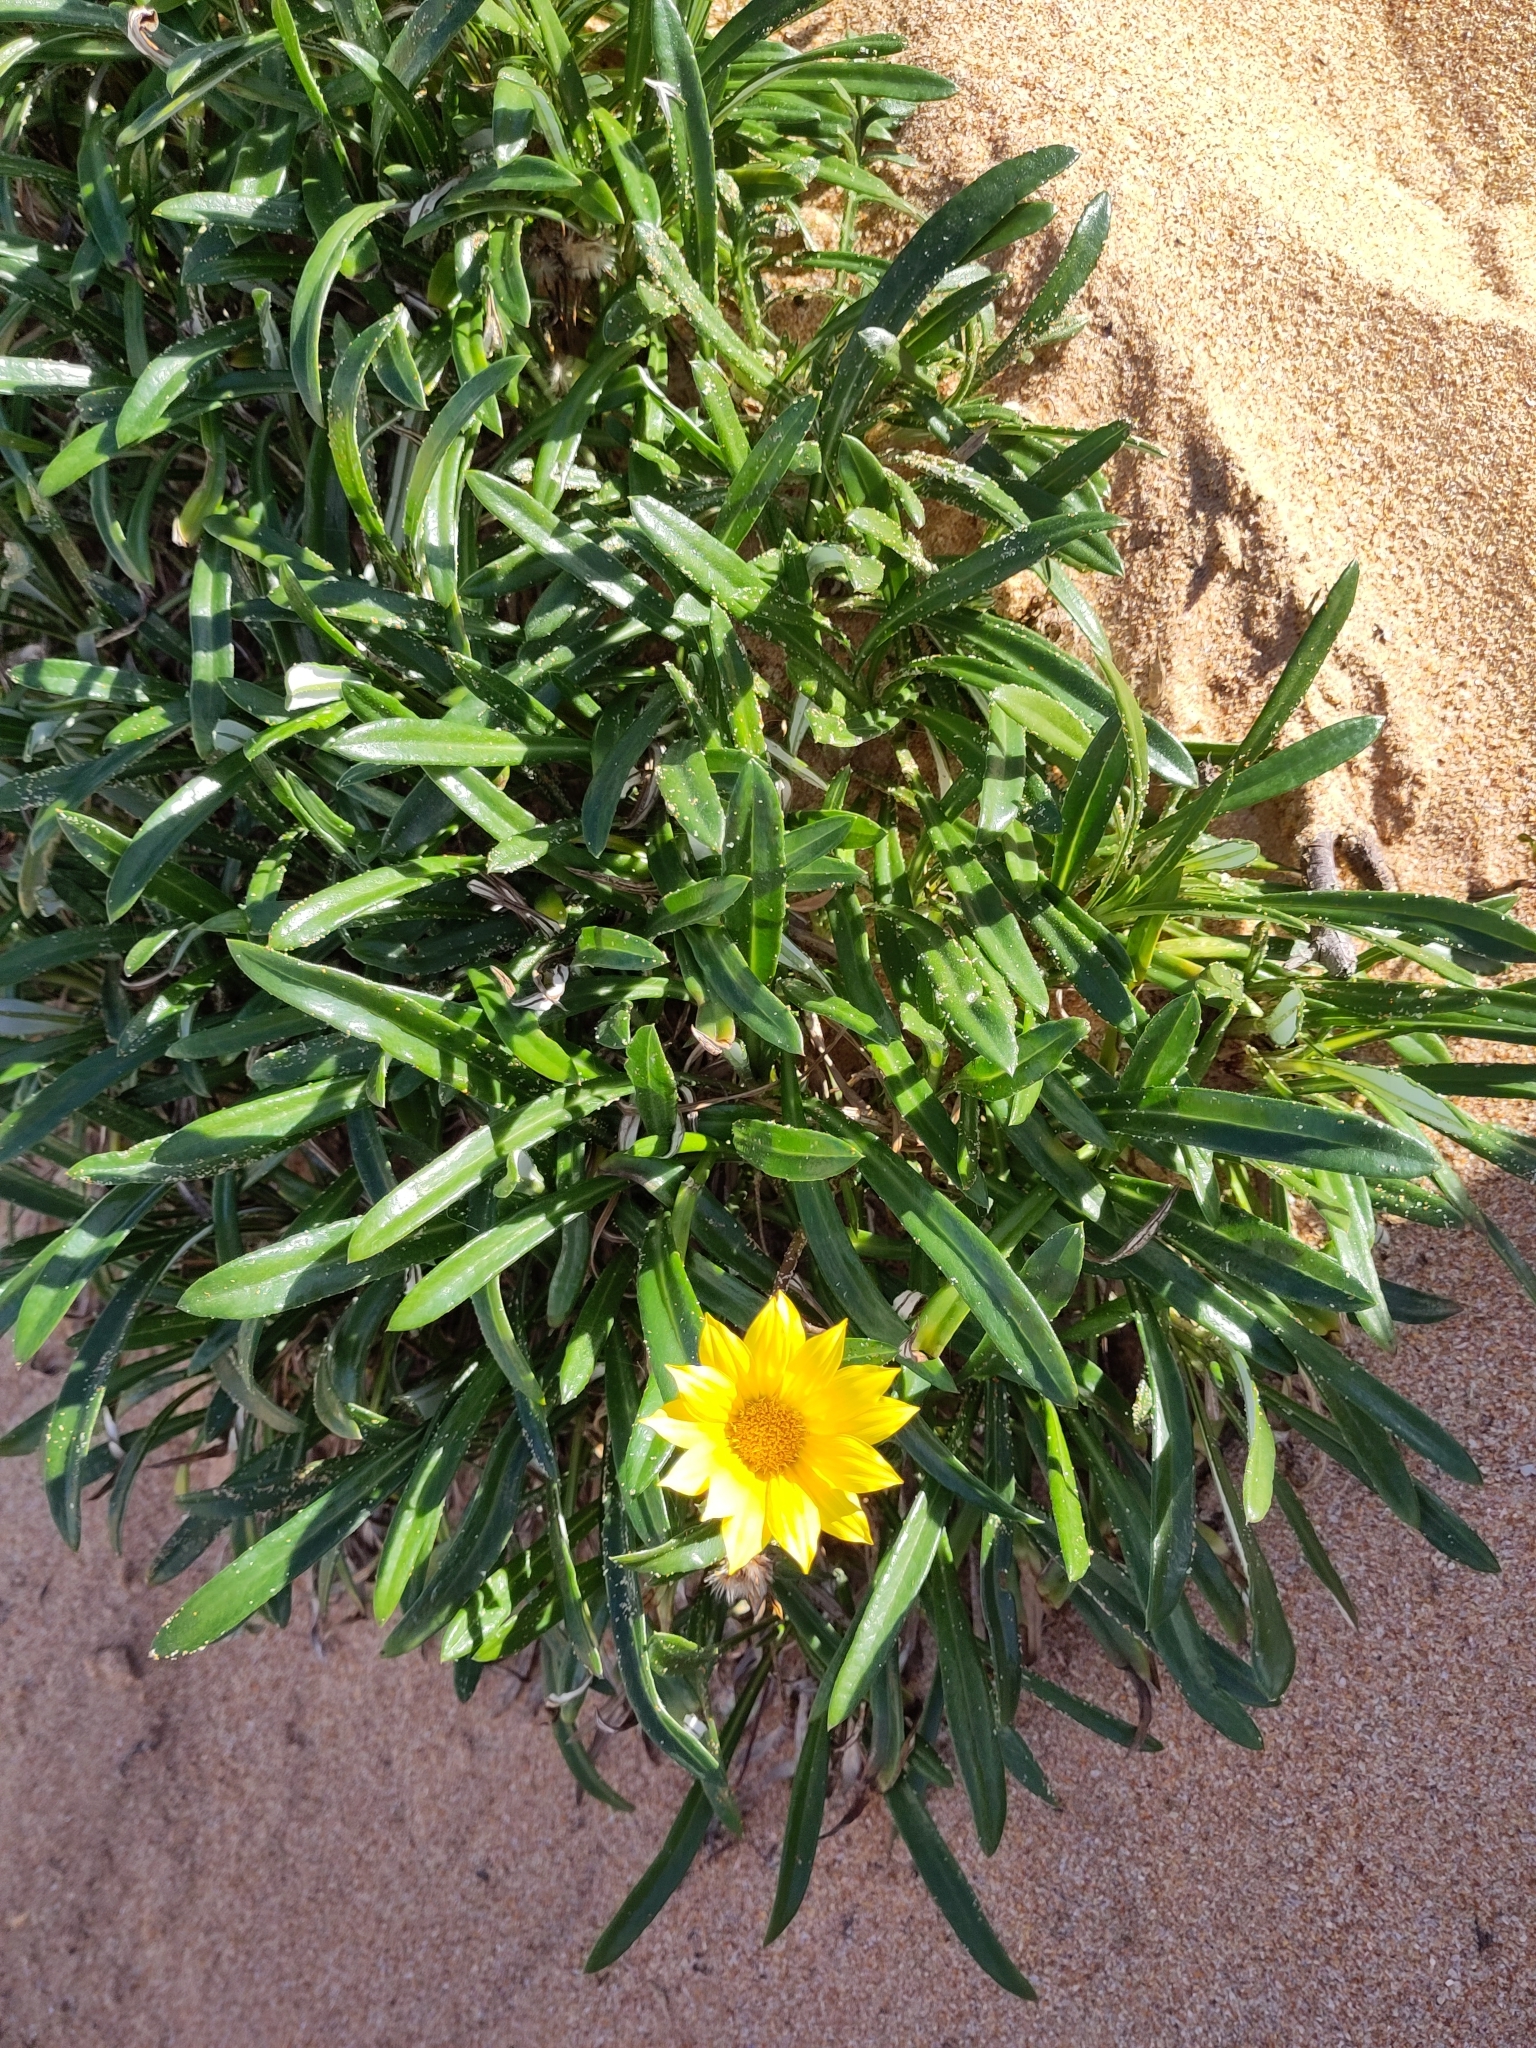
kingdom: Plantae
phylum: Tracheophyta
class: Magnoliopsida
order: Asterales
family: Asteraceae
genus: Gazania
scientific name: Gazania rigens
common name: Treasureflower
